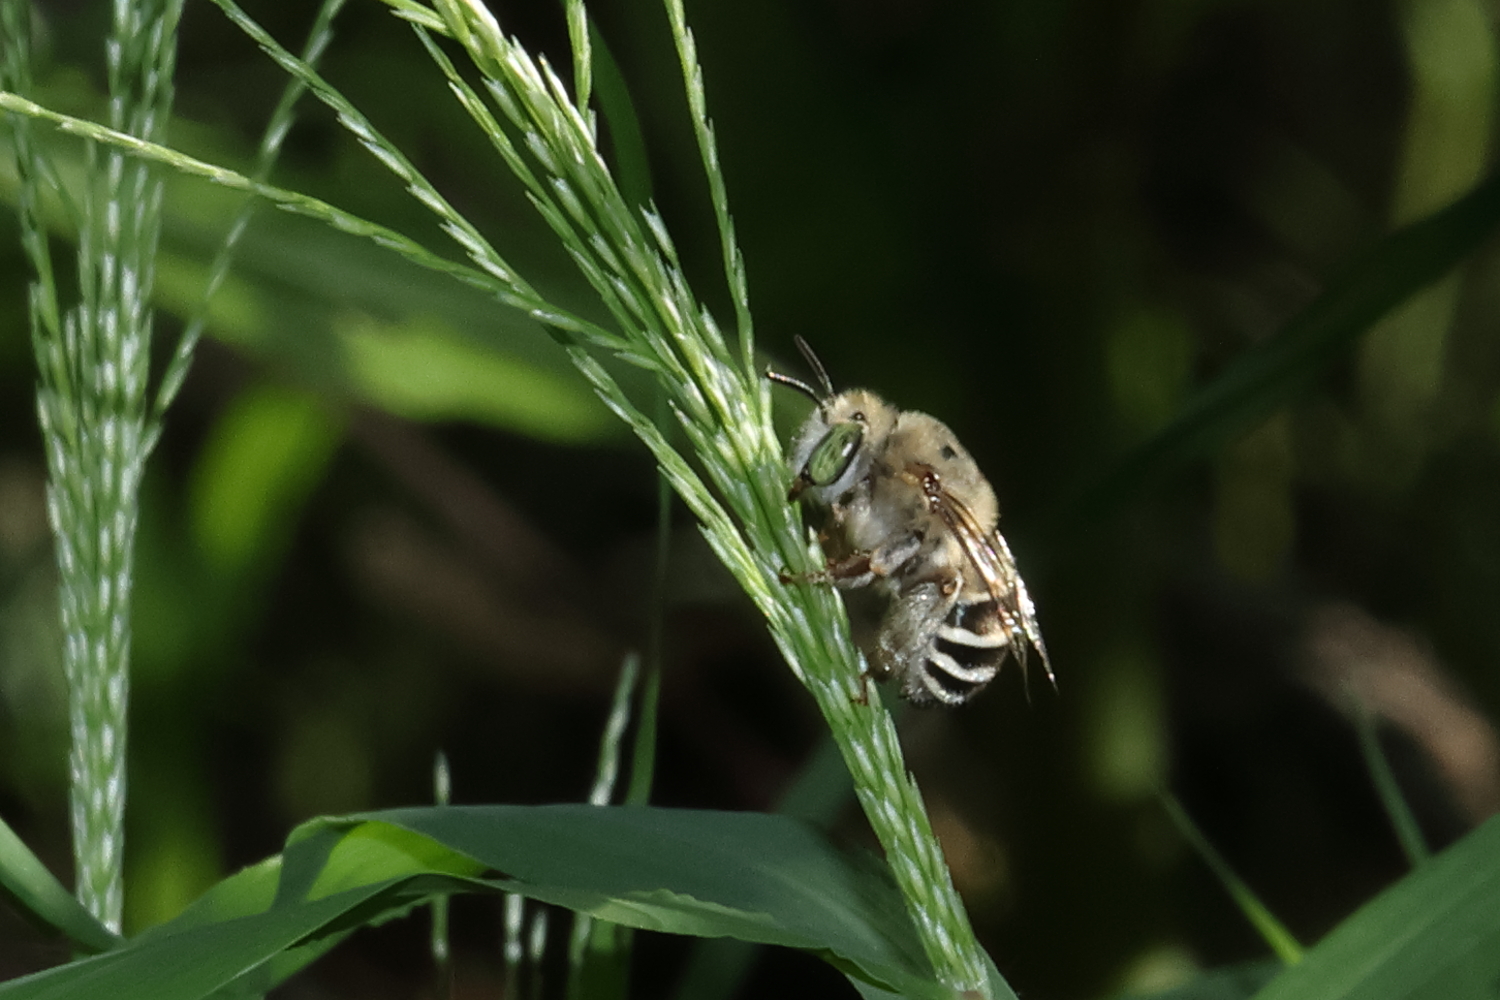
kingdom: Animalia
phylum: Arthropoda
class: Insecta
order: Hymenoptera
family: Apidae
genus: Anthophora
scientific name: Anthophora californica
